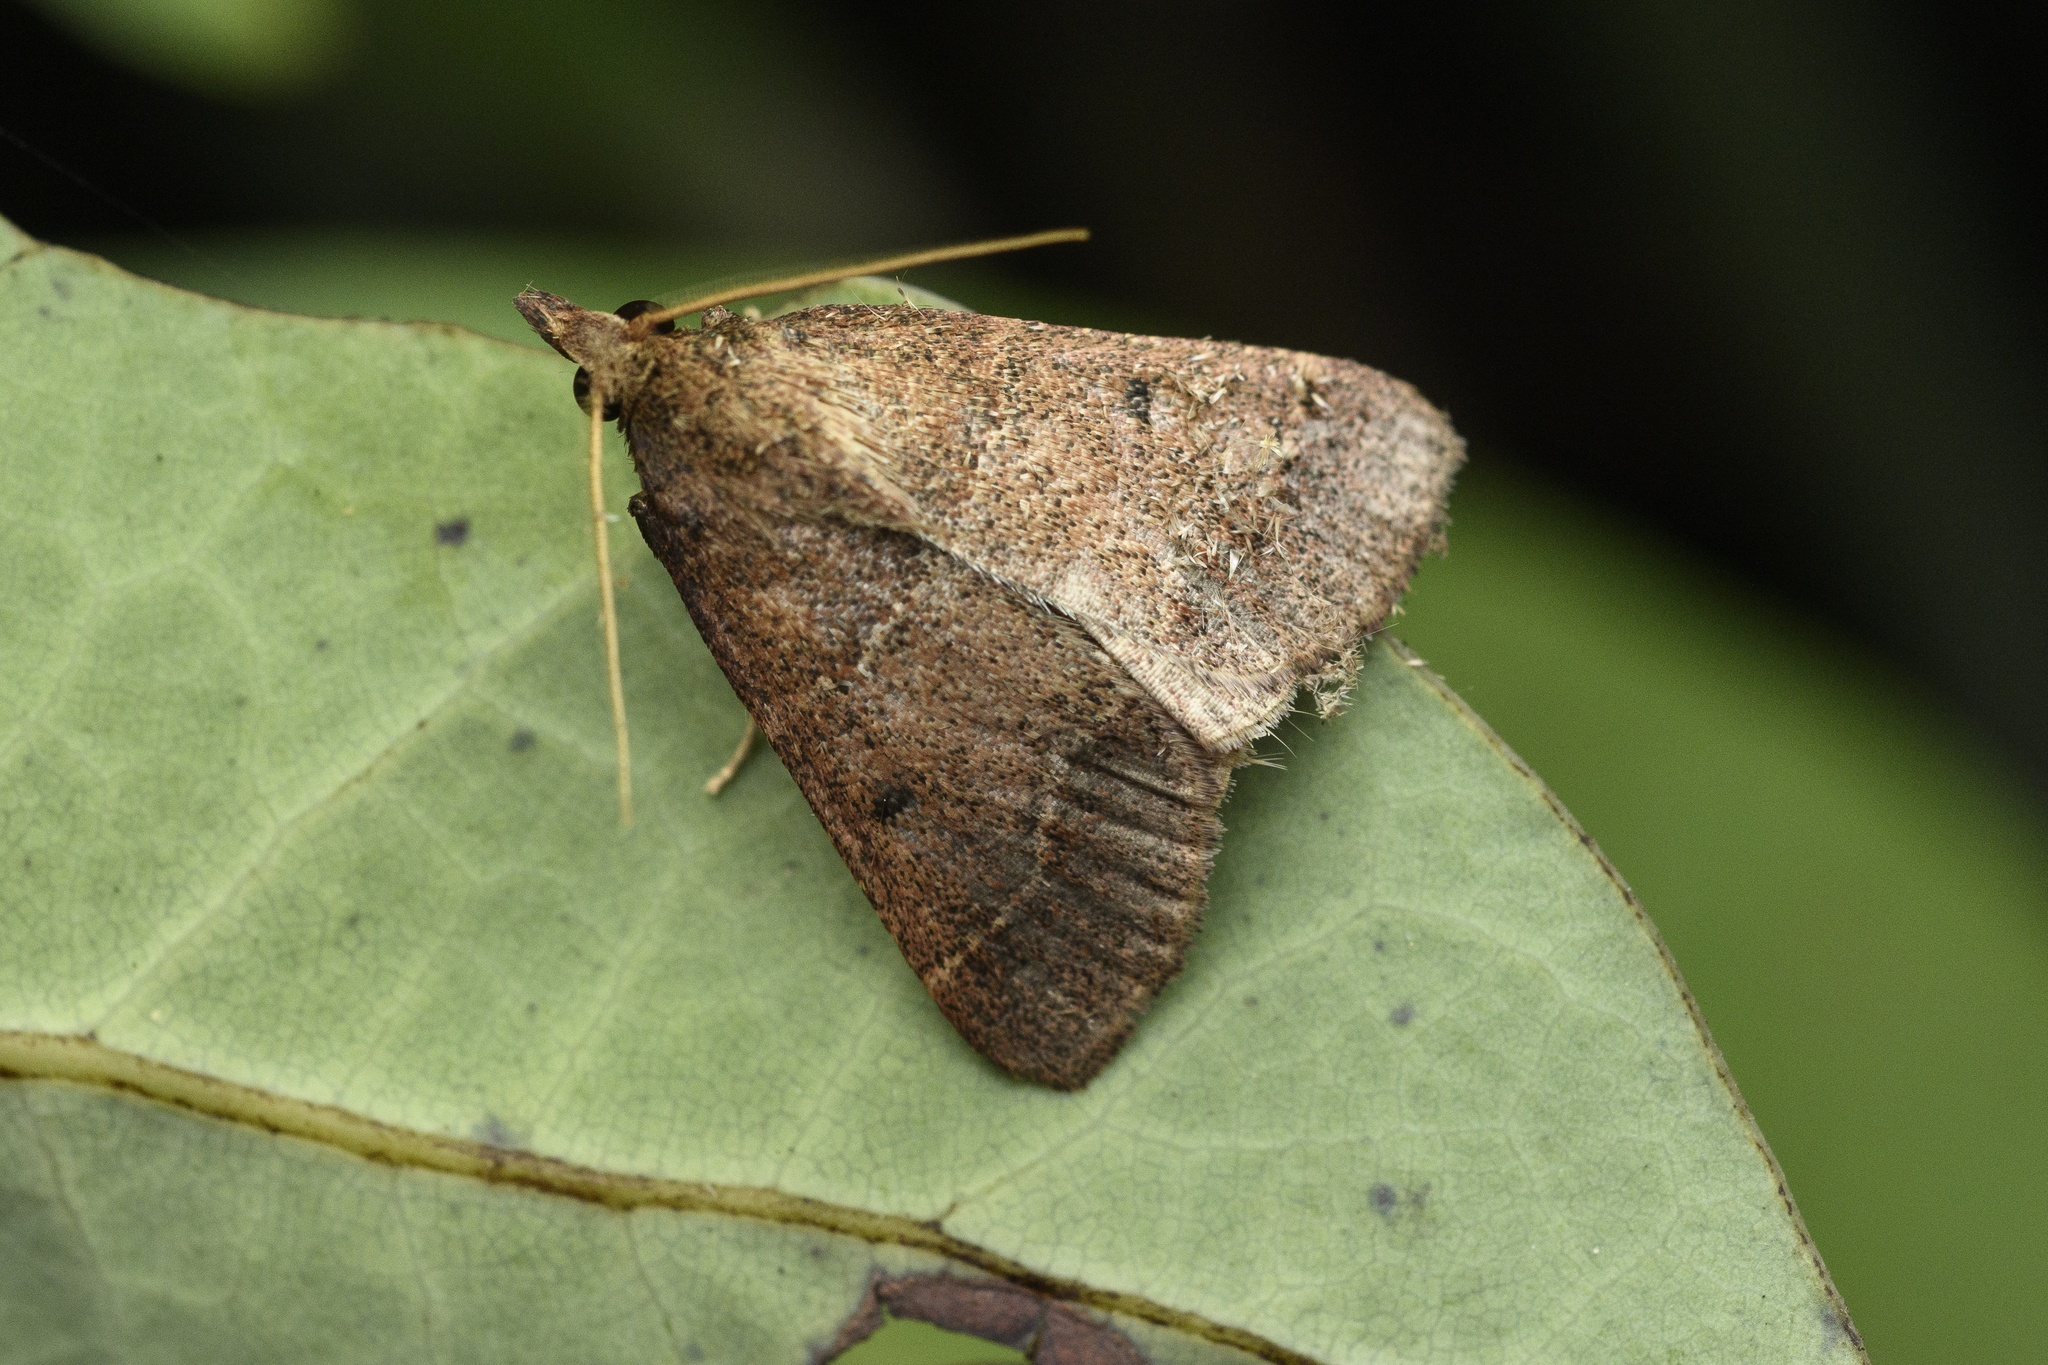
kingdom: Animalia
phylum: Arthropoda
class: Insecta
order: Lepidoptera
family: Pyralidae
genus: Arippara
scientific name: Arippara indicator
